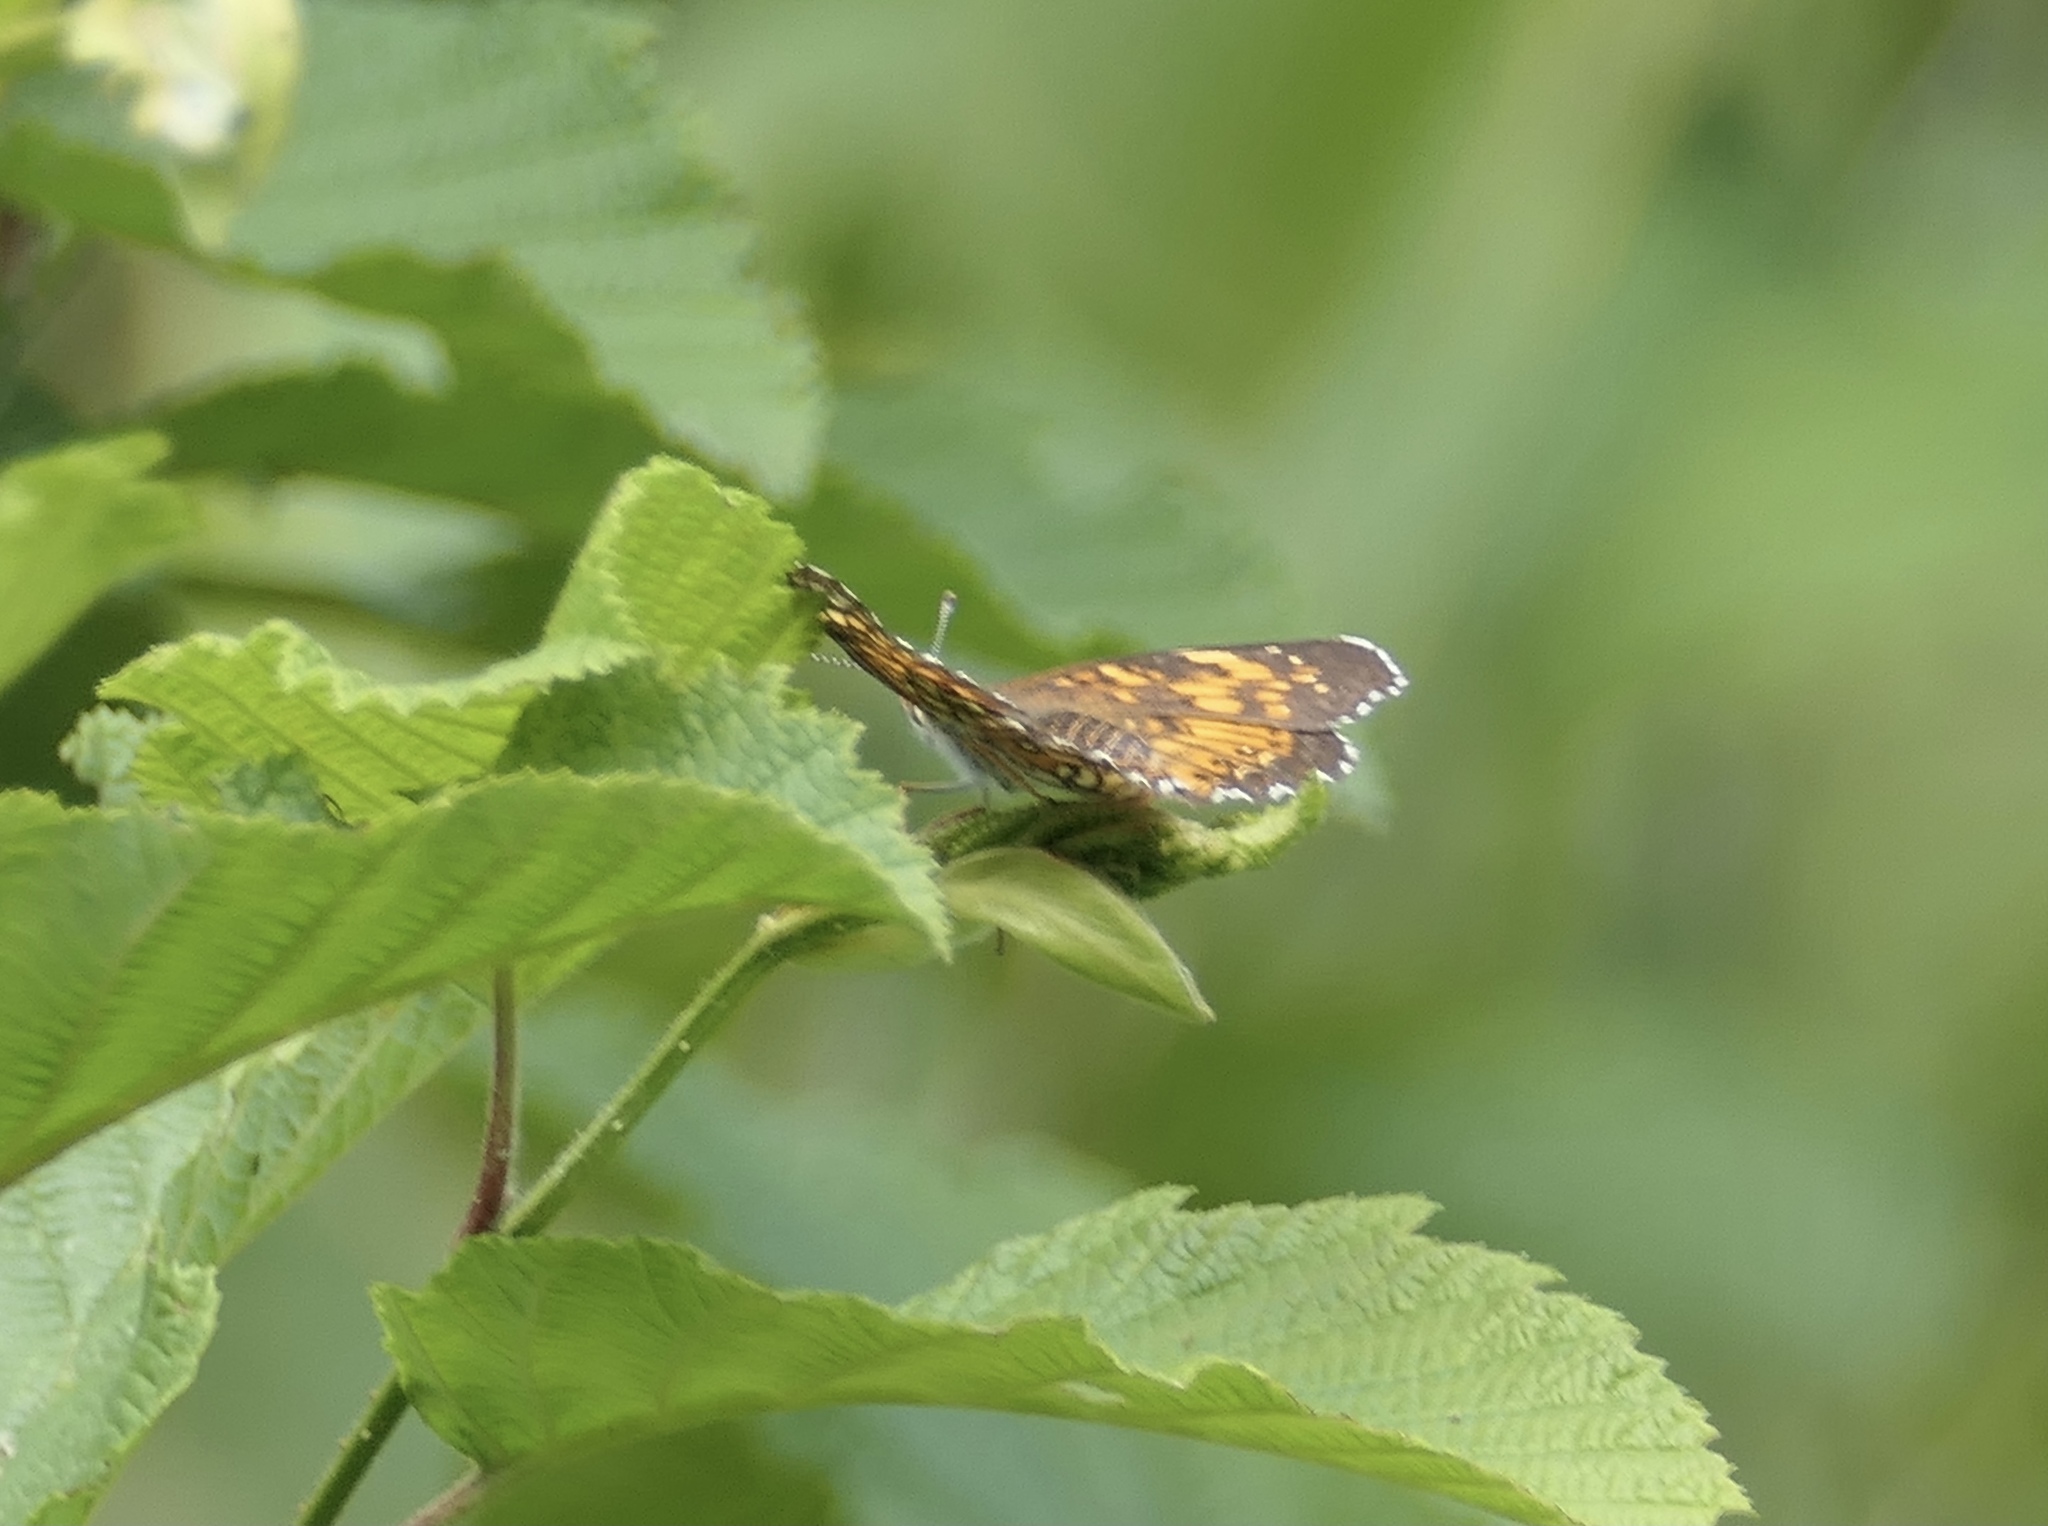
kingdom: Animalia
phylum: Arthropoda
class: Insecta
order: Lepidoptera
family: Nymphalidae
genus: Chlosyne
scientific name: Chlosyne harrisii
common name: Harris's checkerspot
